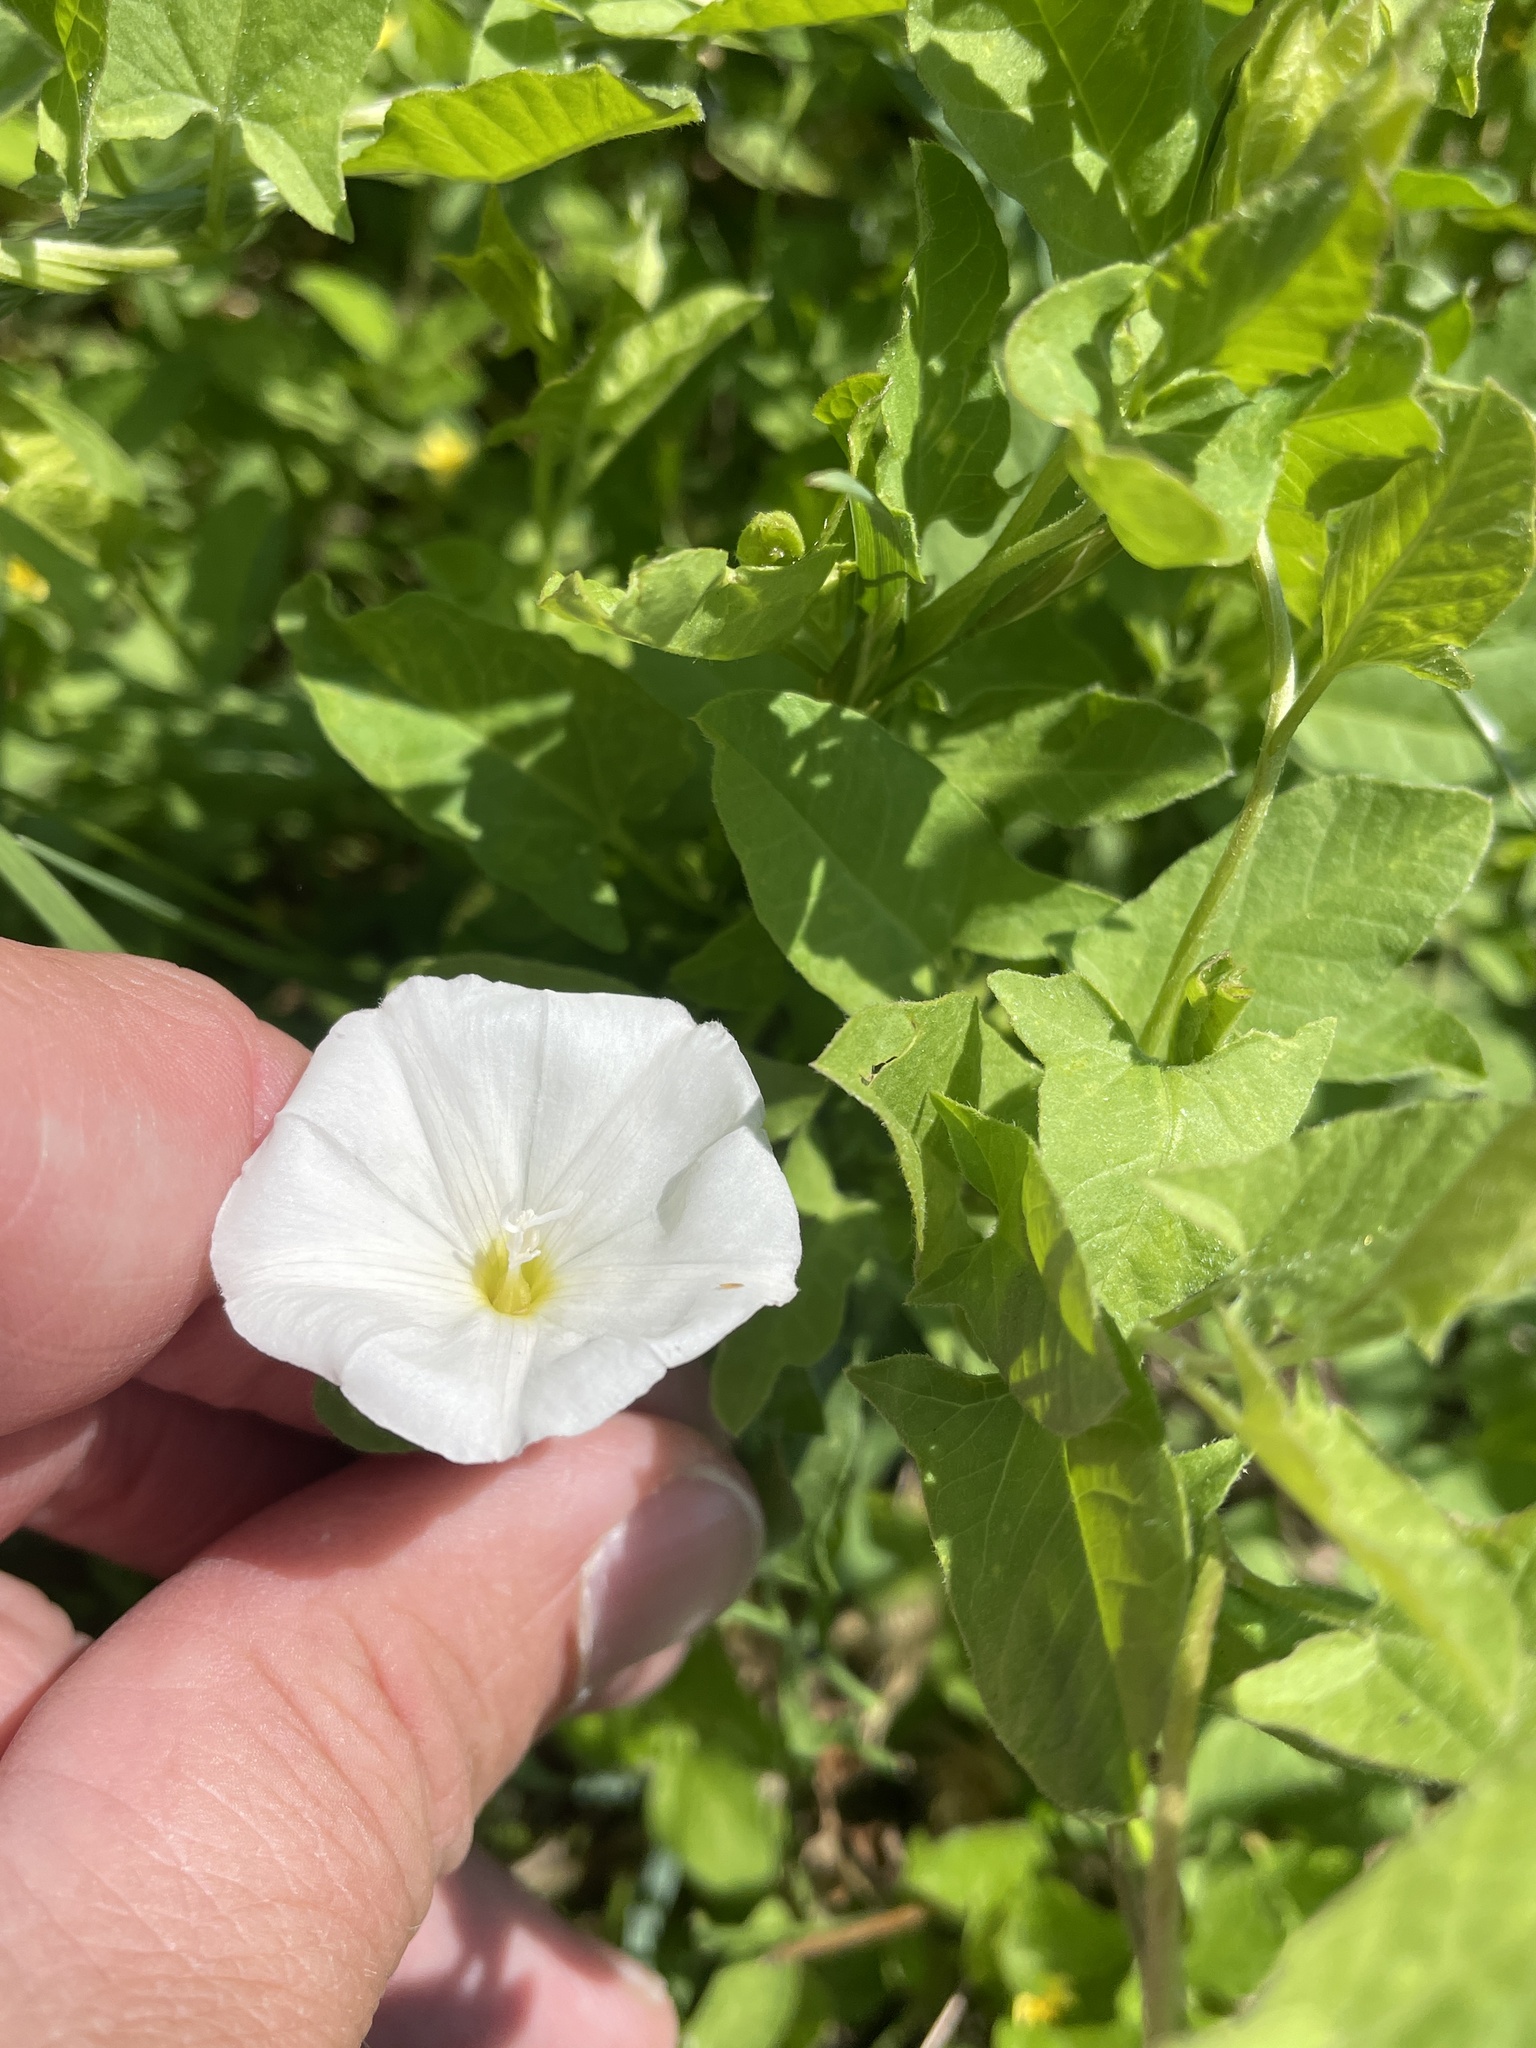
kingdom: Plantae
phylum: Tracheophyta
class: Magnoliopsida
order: Solanales
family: Convolvulaceae
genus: Convolvulus
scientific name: Convolvulus arvensis
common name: Field bindweed
